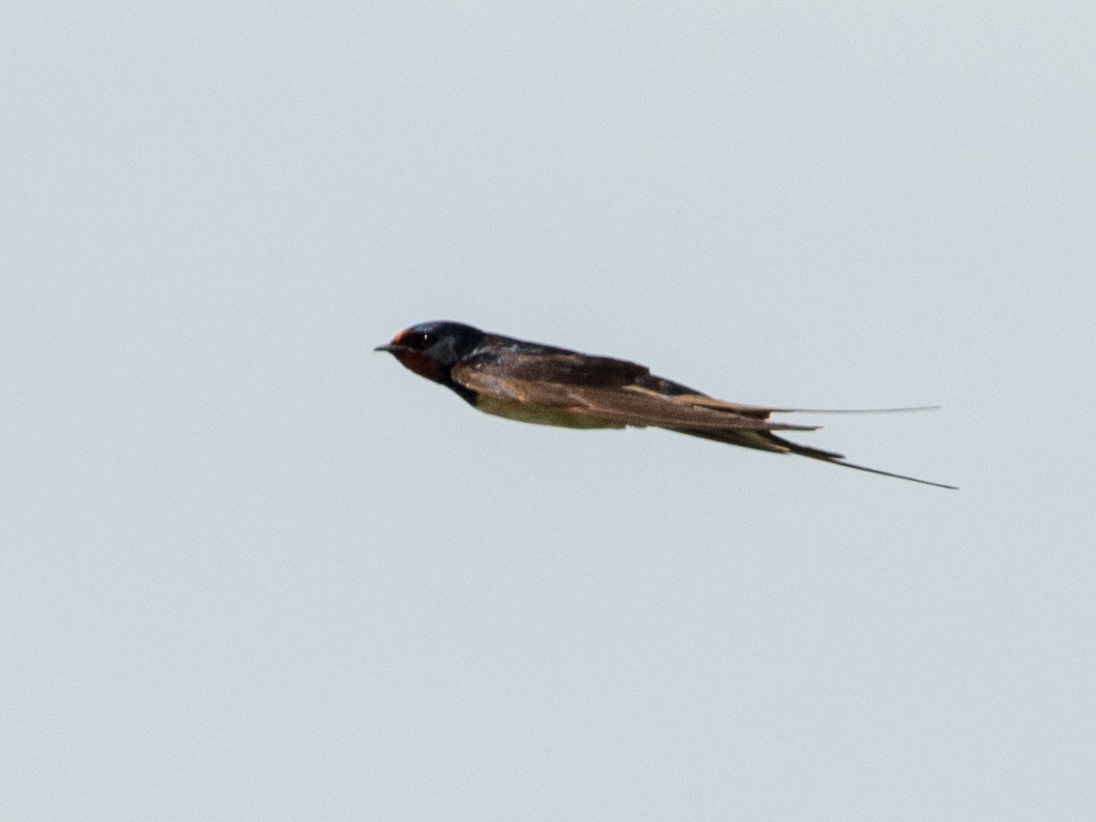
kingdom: Animalia
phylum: Chordata
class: Aves
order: Passeriformes
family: Hirundinidae
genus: Hirundo
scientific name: Hirundo rustica
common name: Barn swallow
